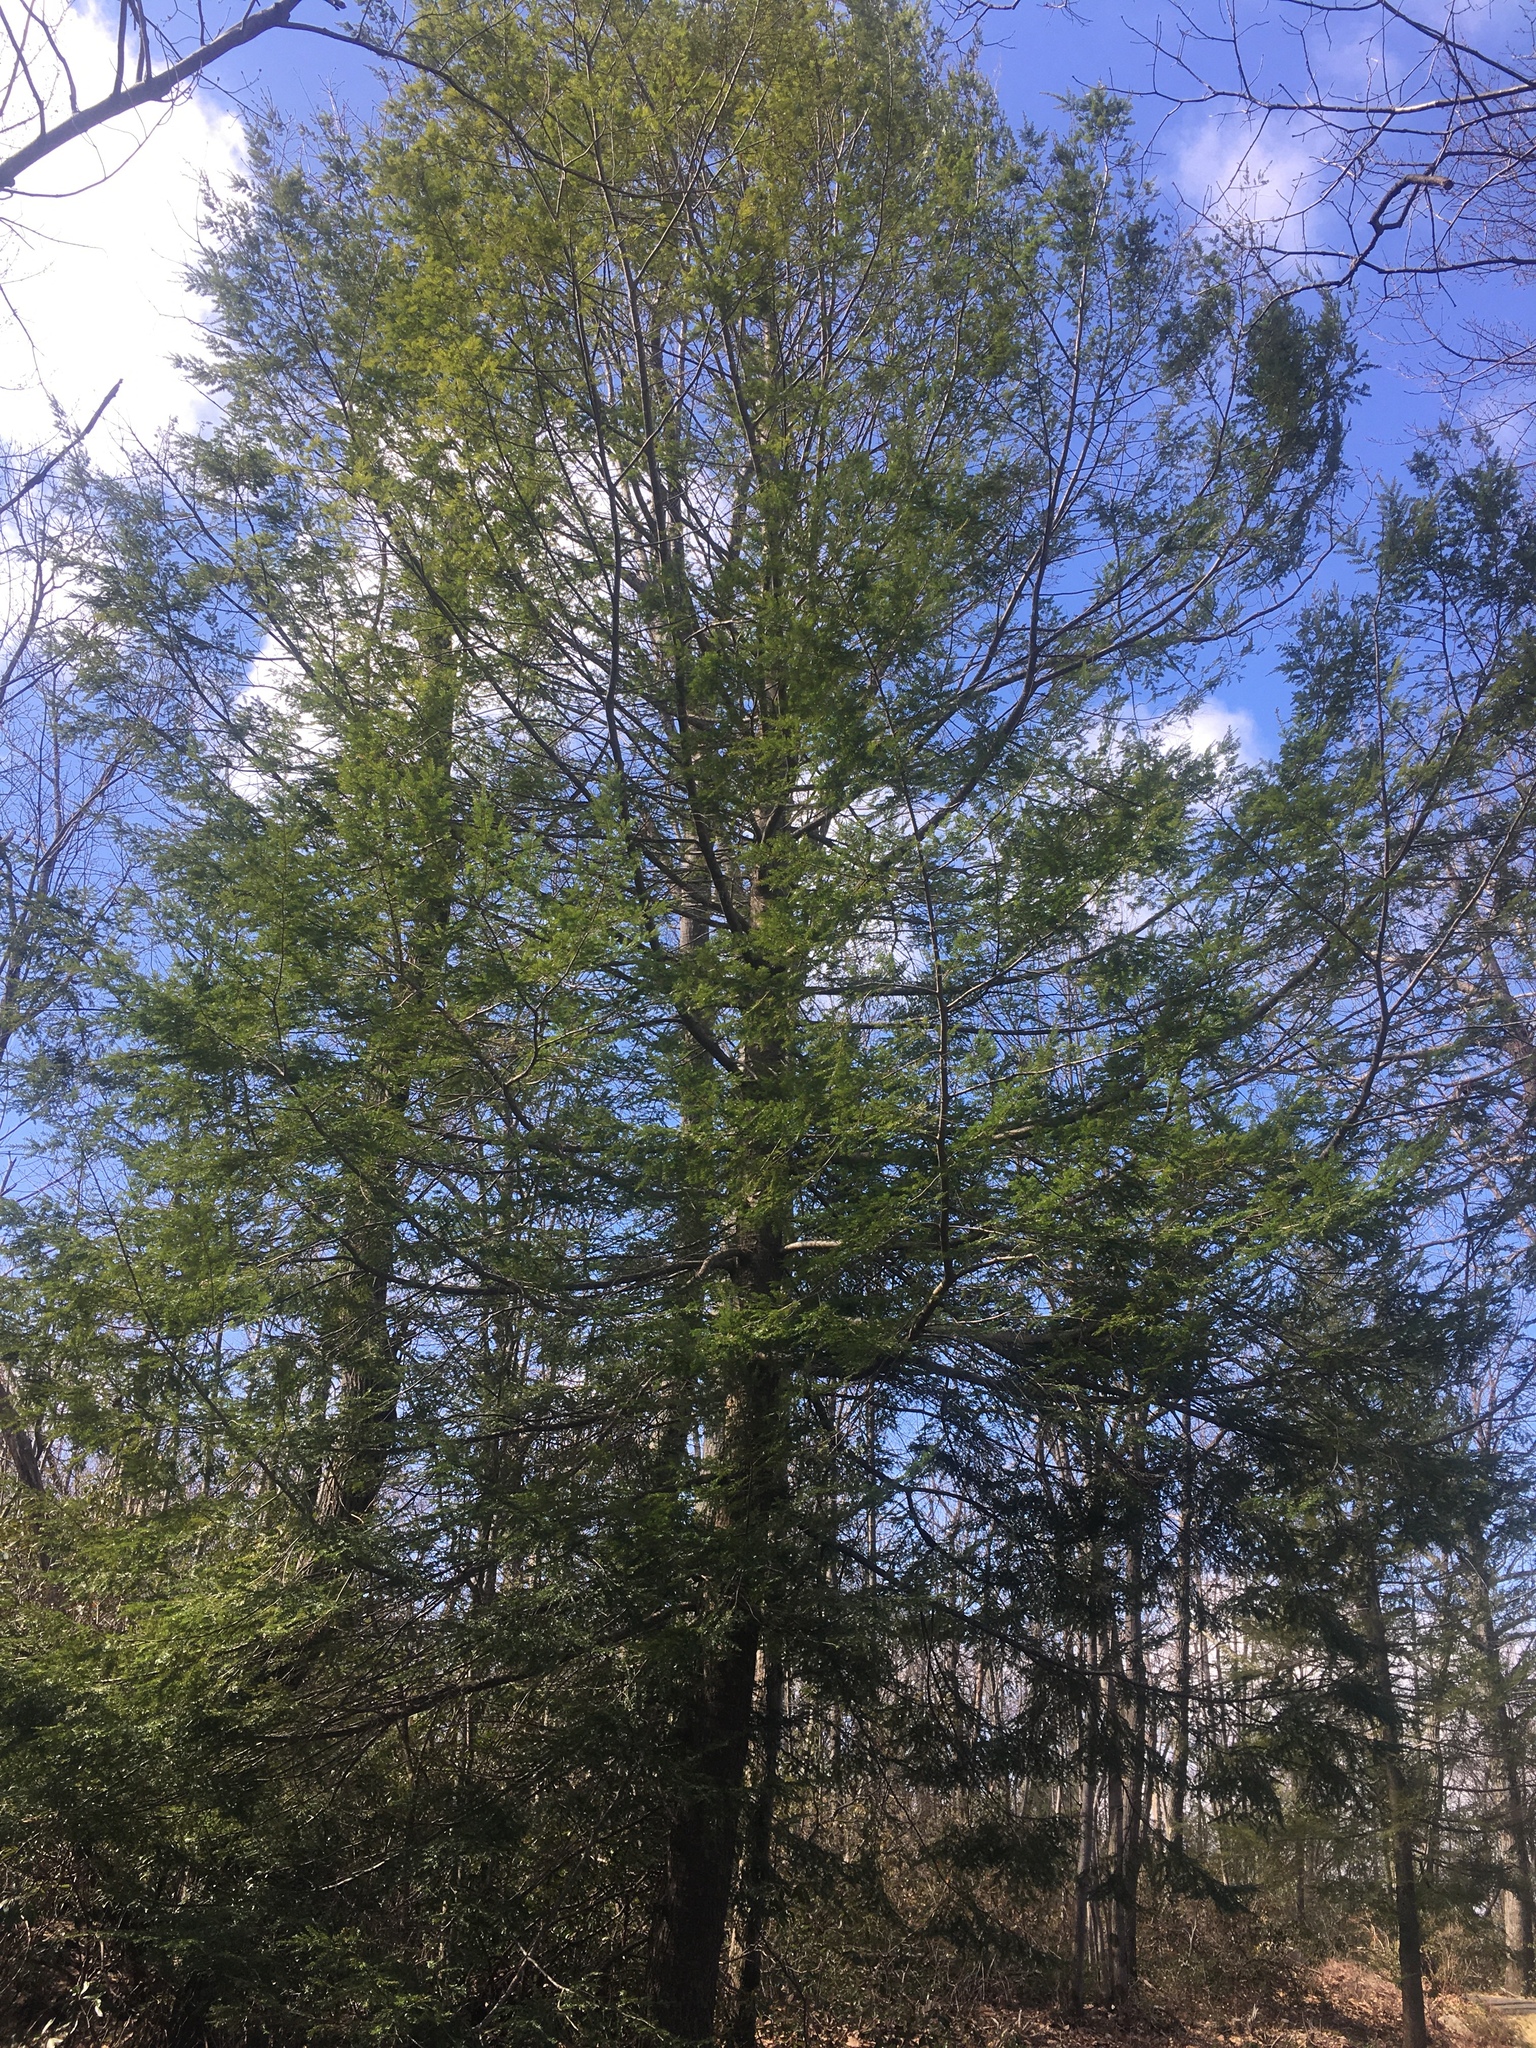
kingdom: Plantae
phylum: Tracheophyta
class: Pinopsida
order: Pinales
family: Pinaceae
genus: Tsuga
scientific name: Tsuga canadensis
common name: Eastern hemlock
